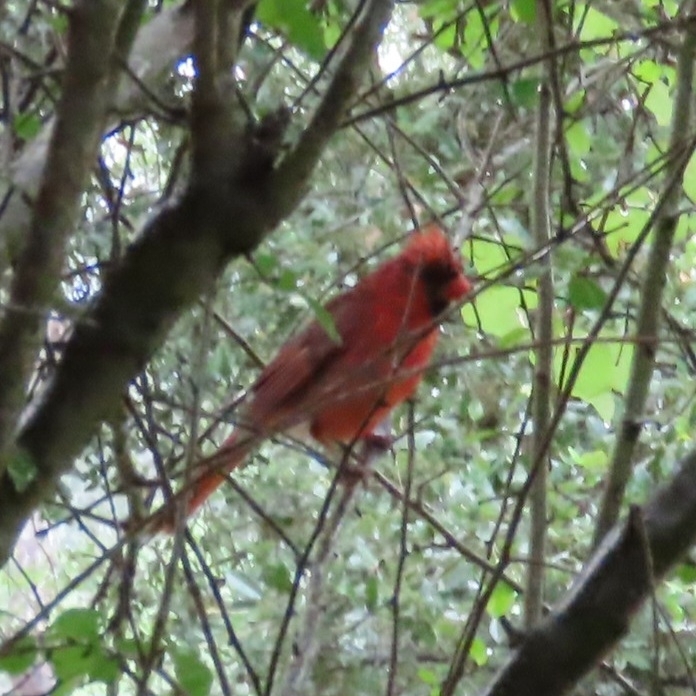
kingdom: Animalia
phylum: Chordata
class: Aves
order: Passeriformes
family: Cardinalidae
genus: Cardinalis
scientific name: Cardinalis cardinalis
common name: Northern cardinal
